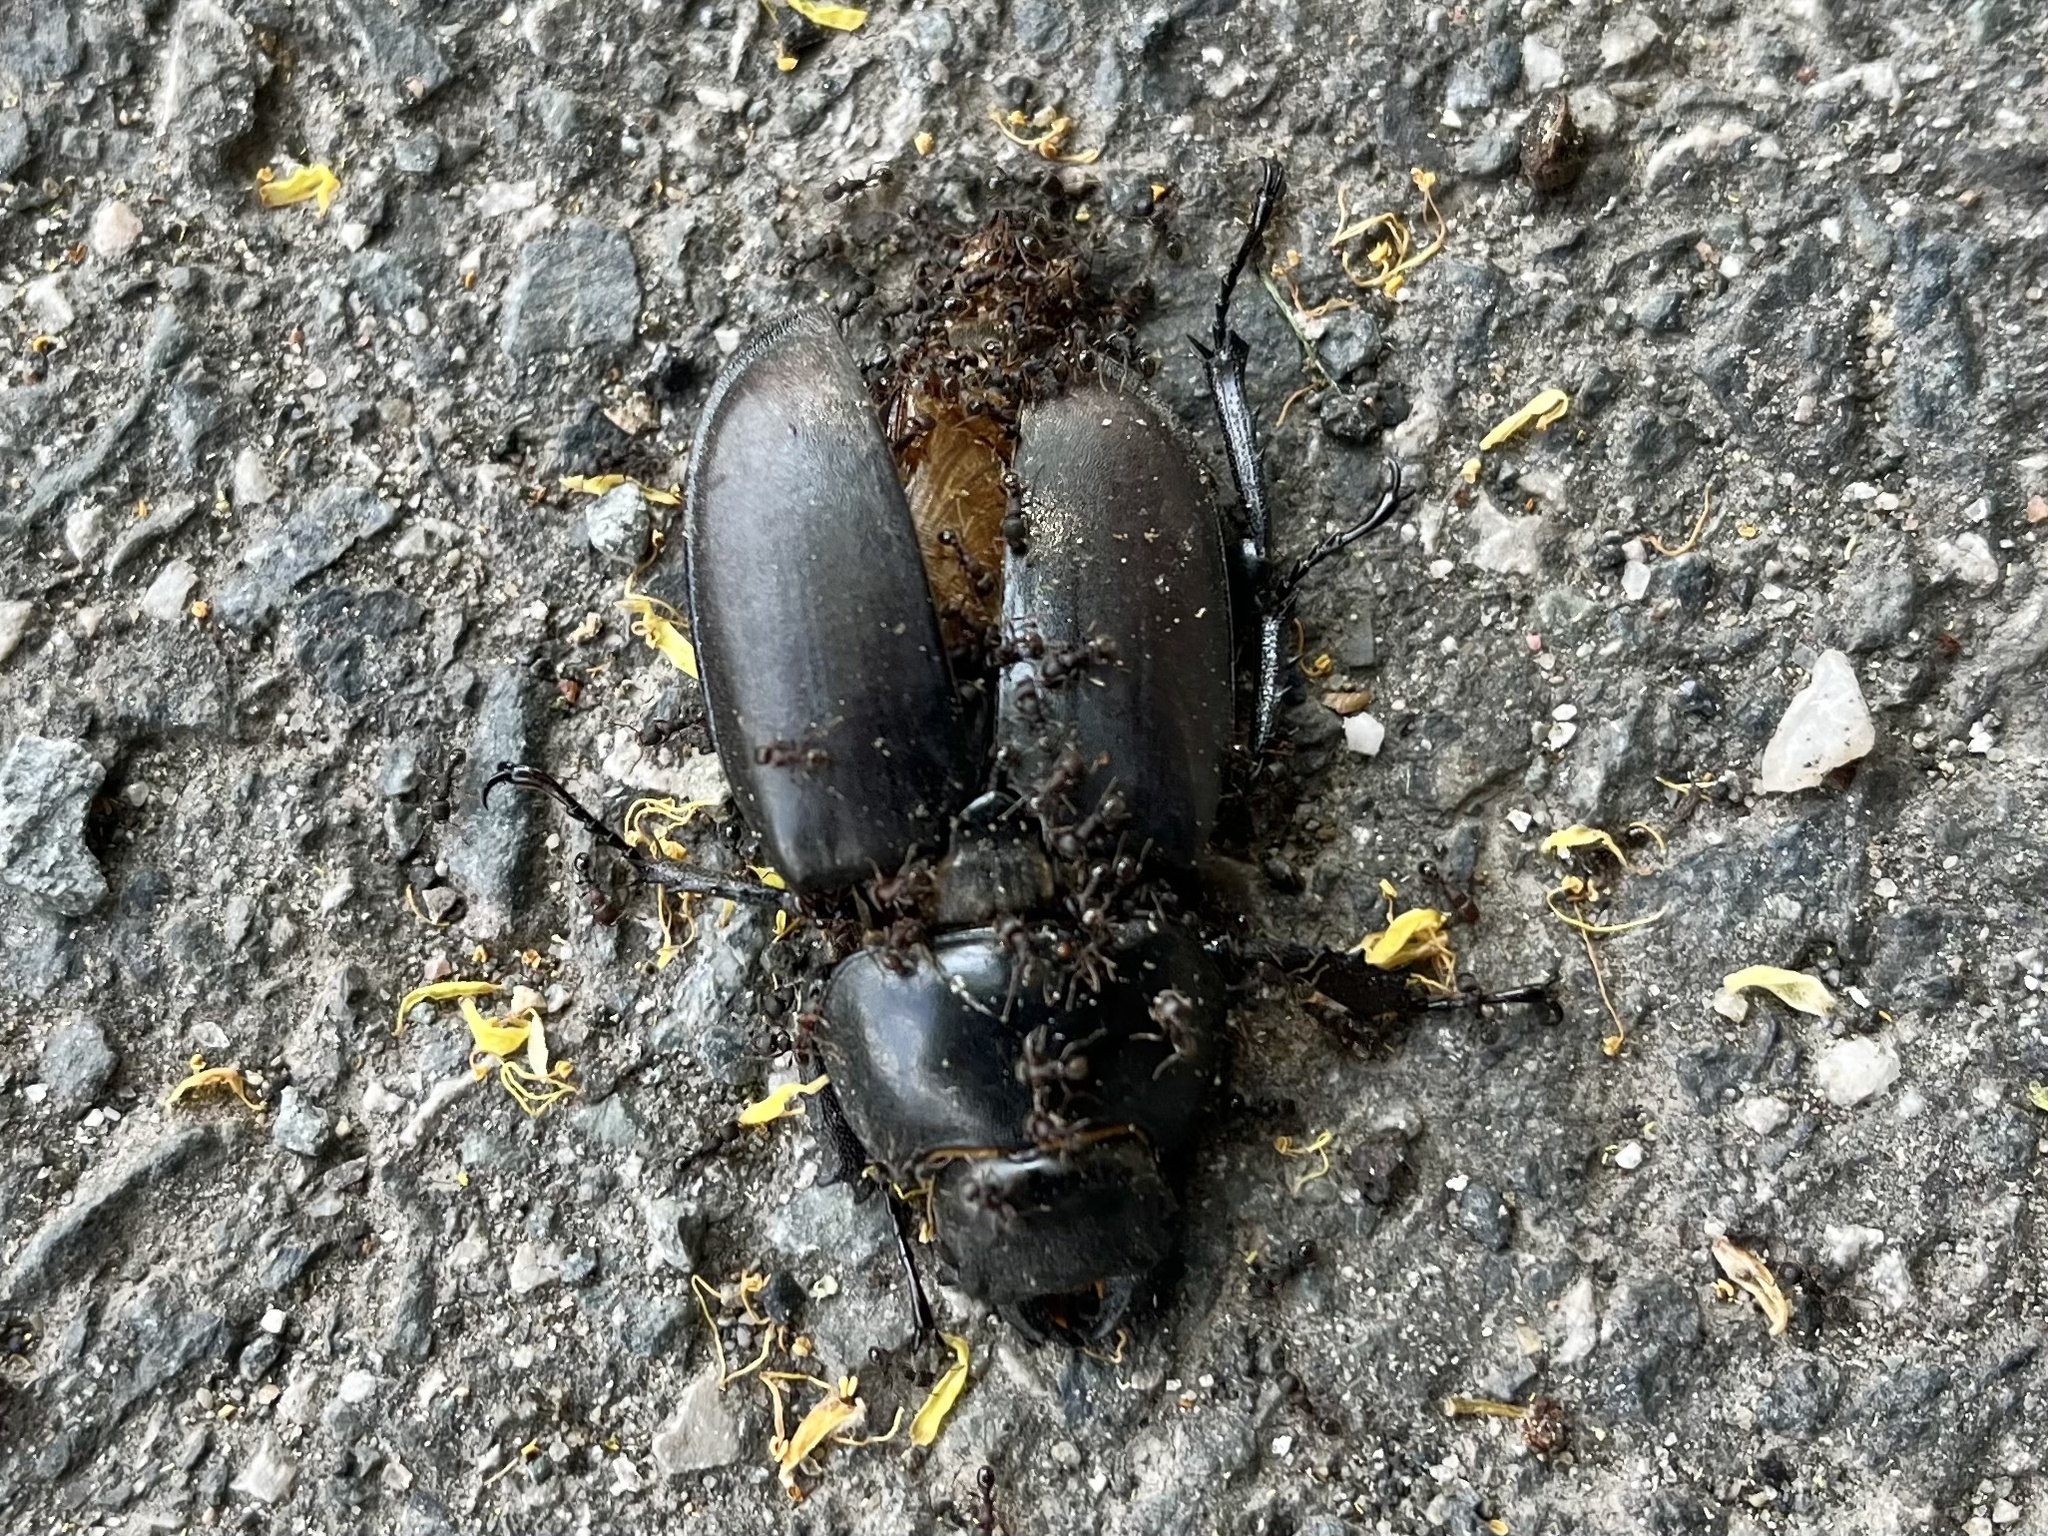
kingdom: Animalia
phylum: Arthropoda
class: Insecta
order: Coleoptera
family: Lucanidae
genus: Lucanus
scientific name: Lucanus cervus
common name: Stag beetle
